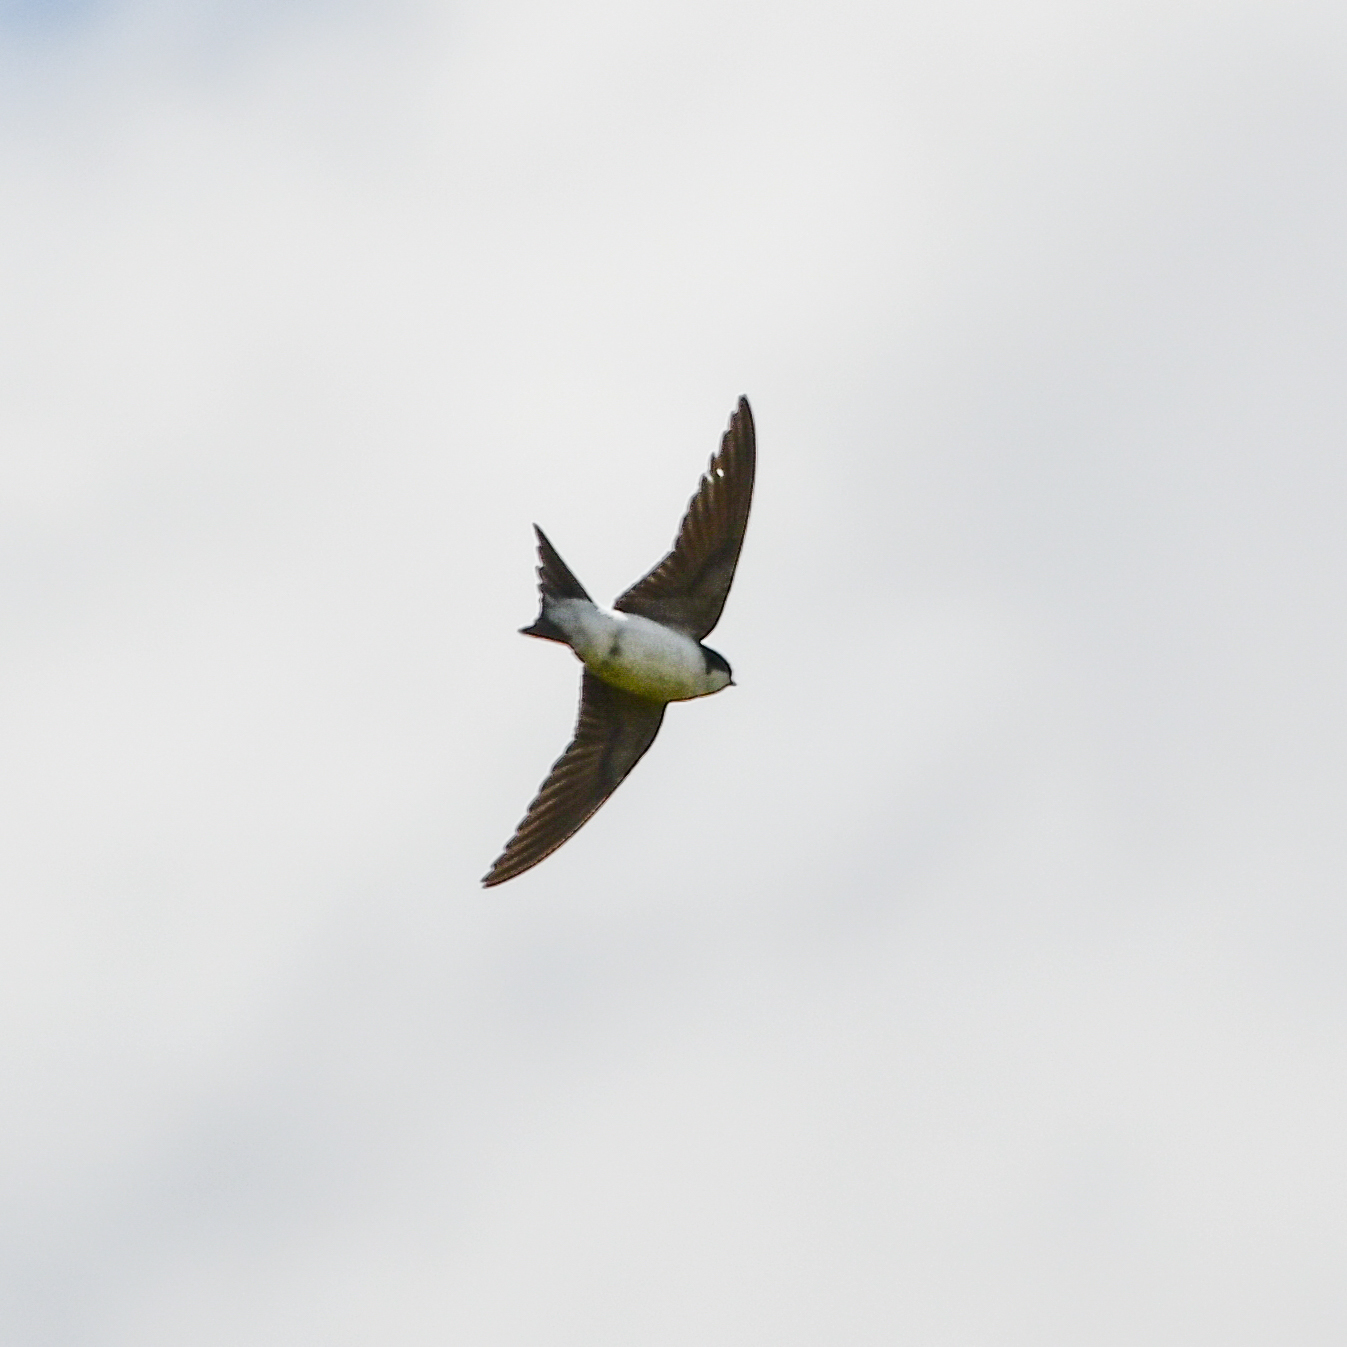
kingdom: Animalia
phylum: Chordata
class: Aves
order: Passeriformes
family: Hirundinidae
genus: Delichon
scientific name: Delichon urbicum
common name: Common house martin
